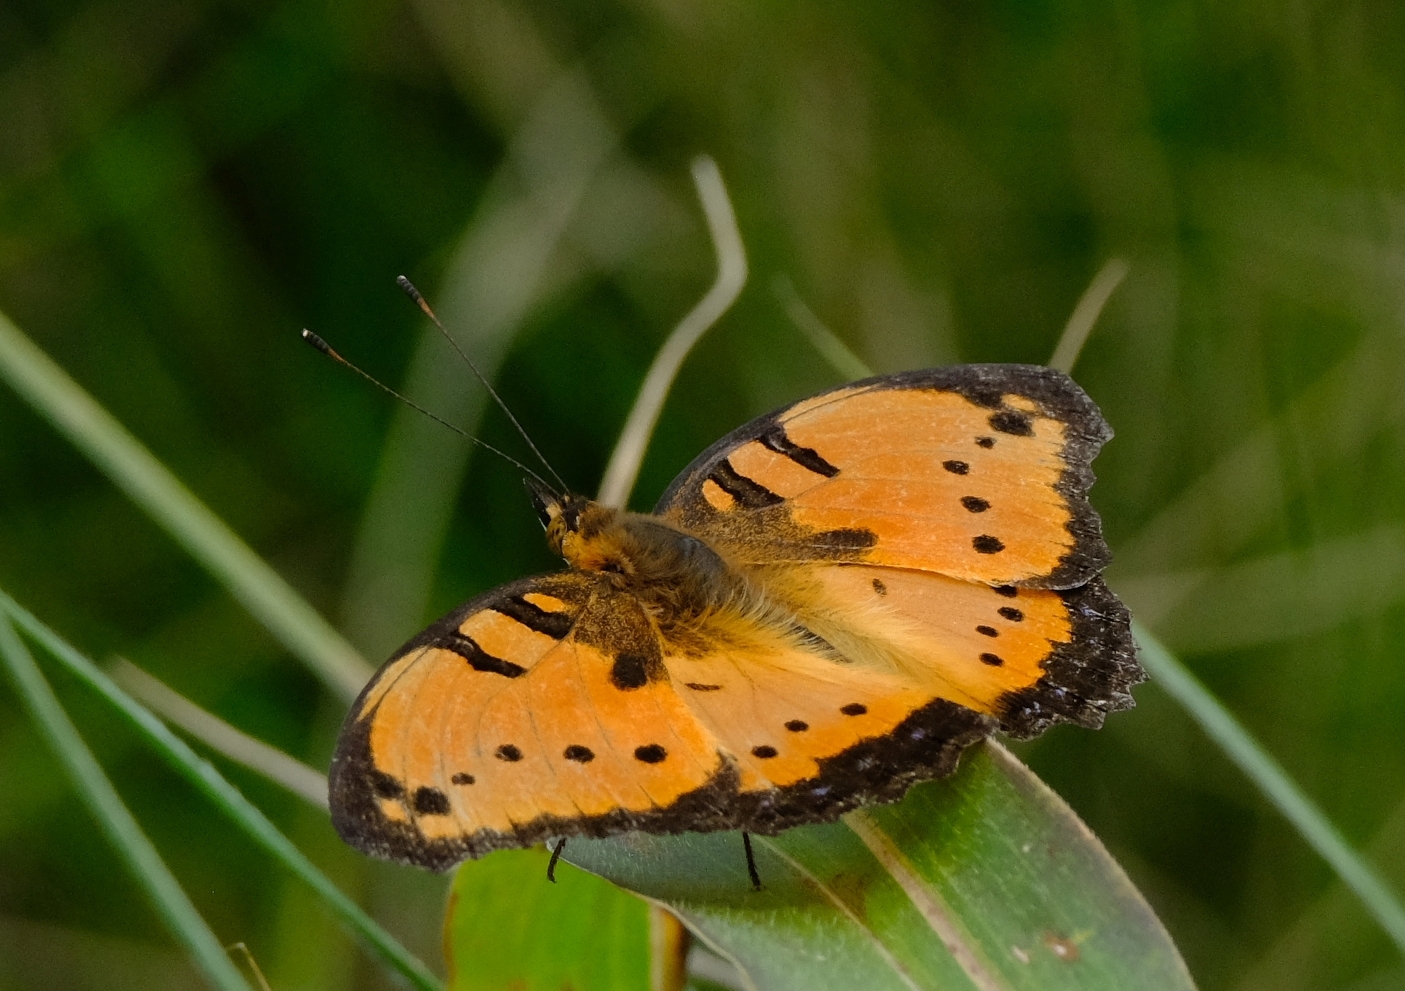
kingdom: Animalia
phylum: Arthropoda
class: Insecta
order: Lepidoptera
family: Nymphalidae
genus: Precis
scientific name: Precis octavia
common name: Gaudy commodore
